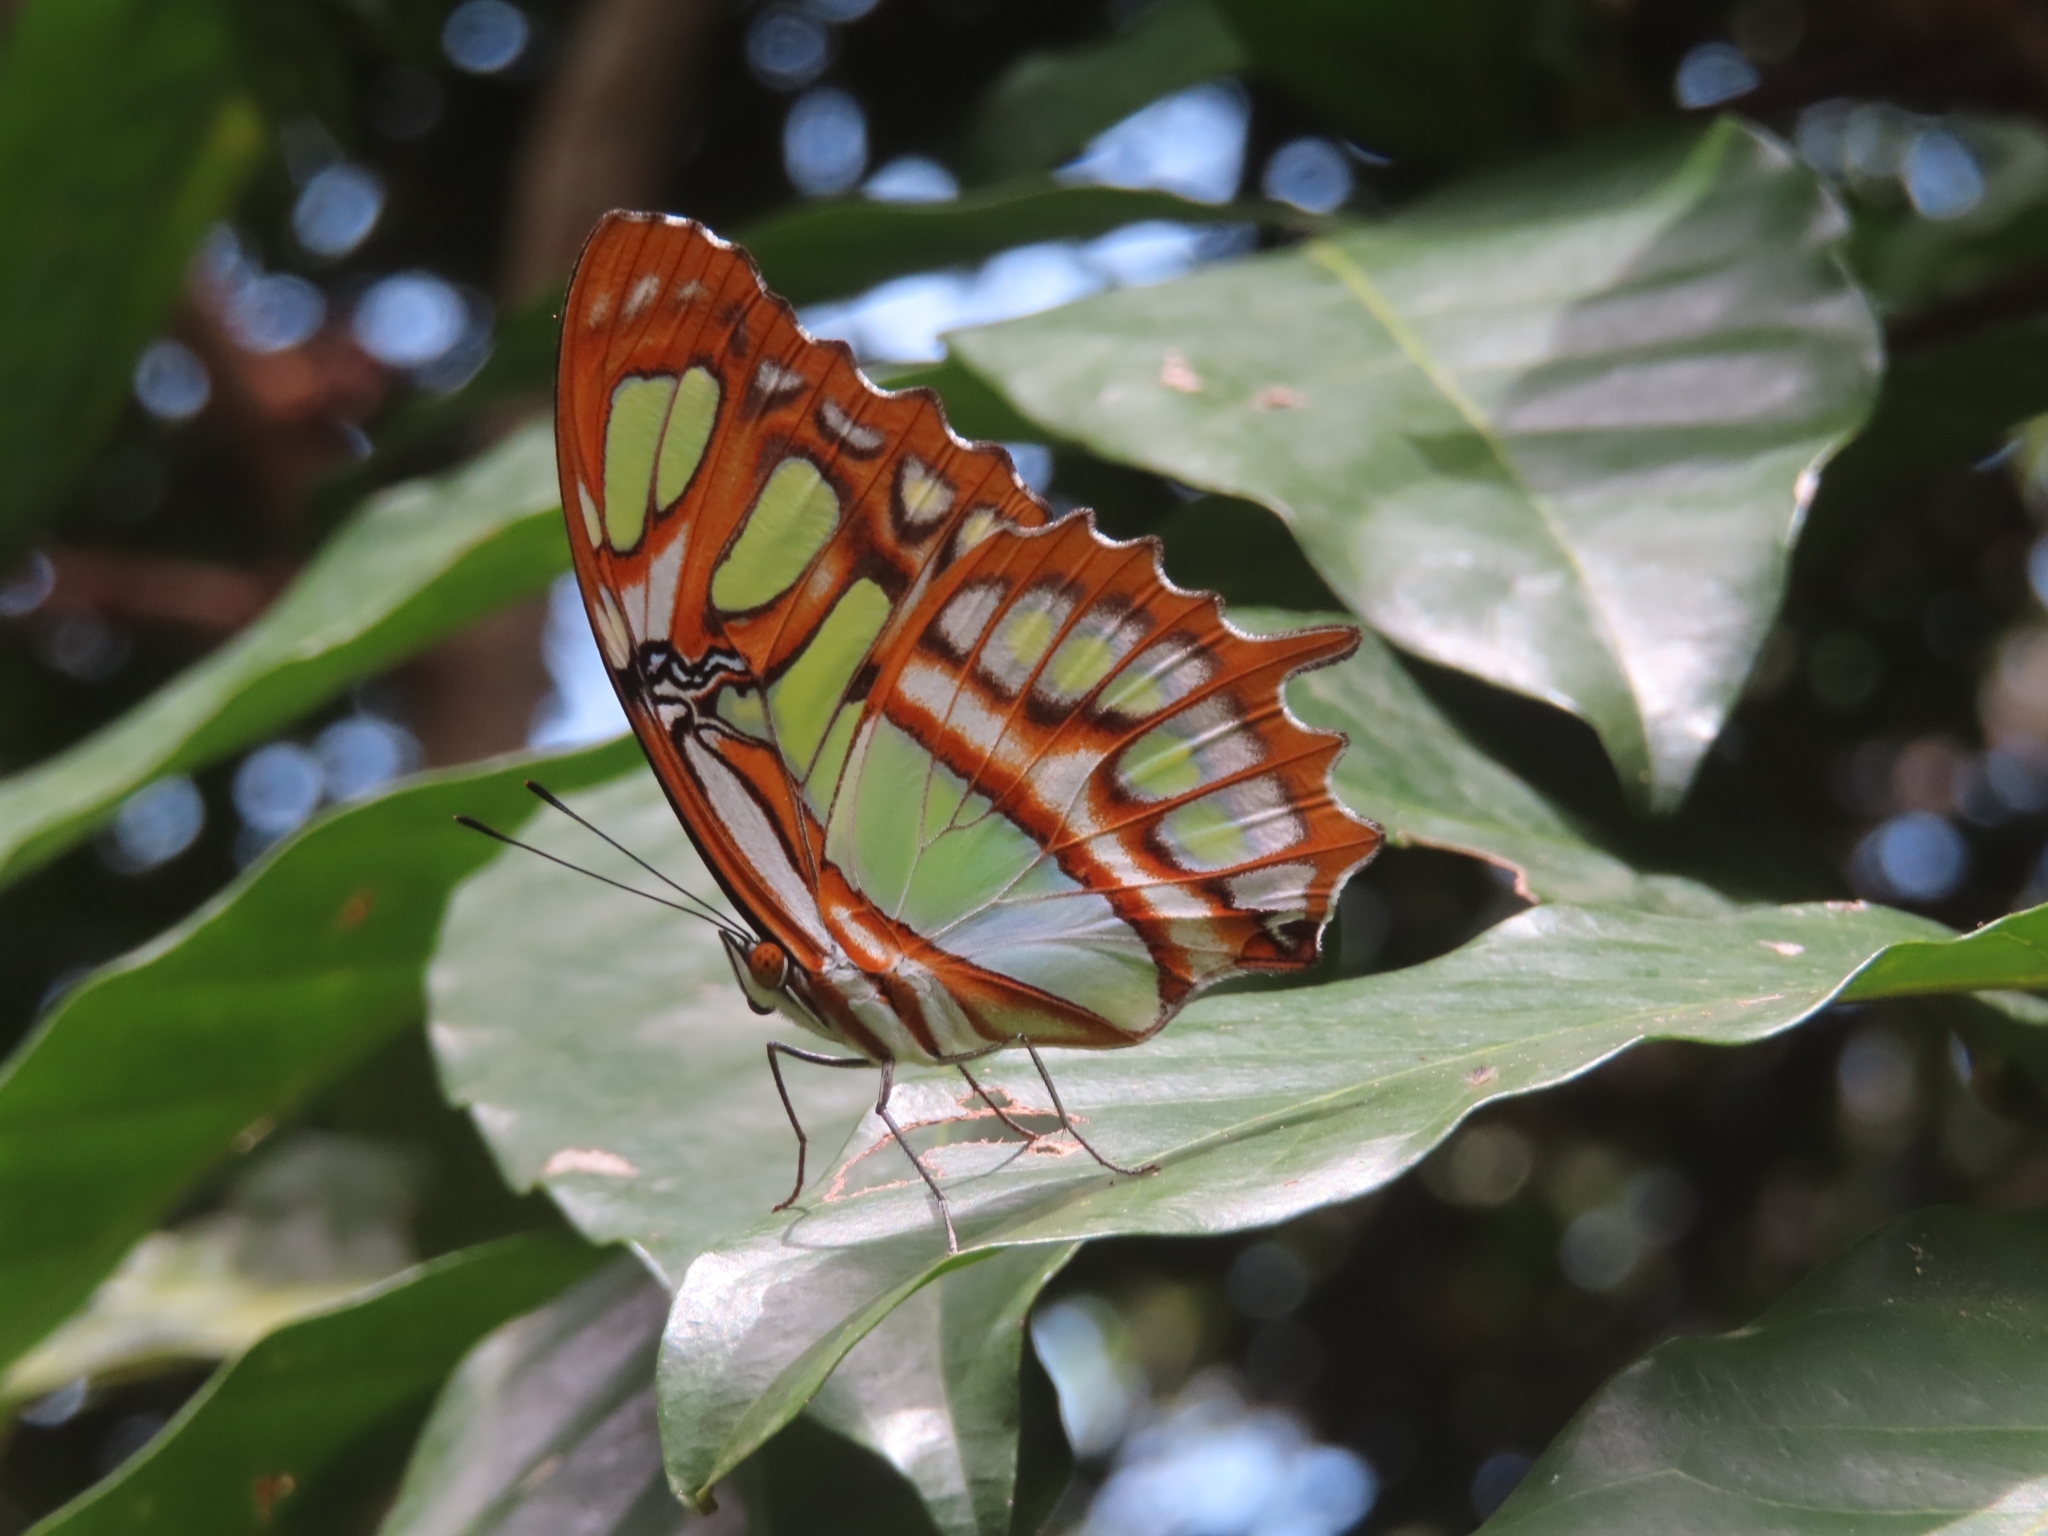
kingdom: Animalia
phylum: Arthropoda
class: Insecta
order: Lepidoptera
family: Nymphalidae
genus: Siproeta
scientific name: Siproeta stelenes
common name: Malachite
